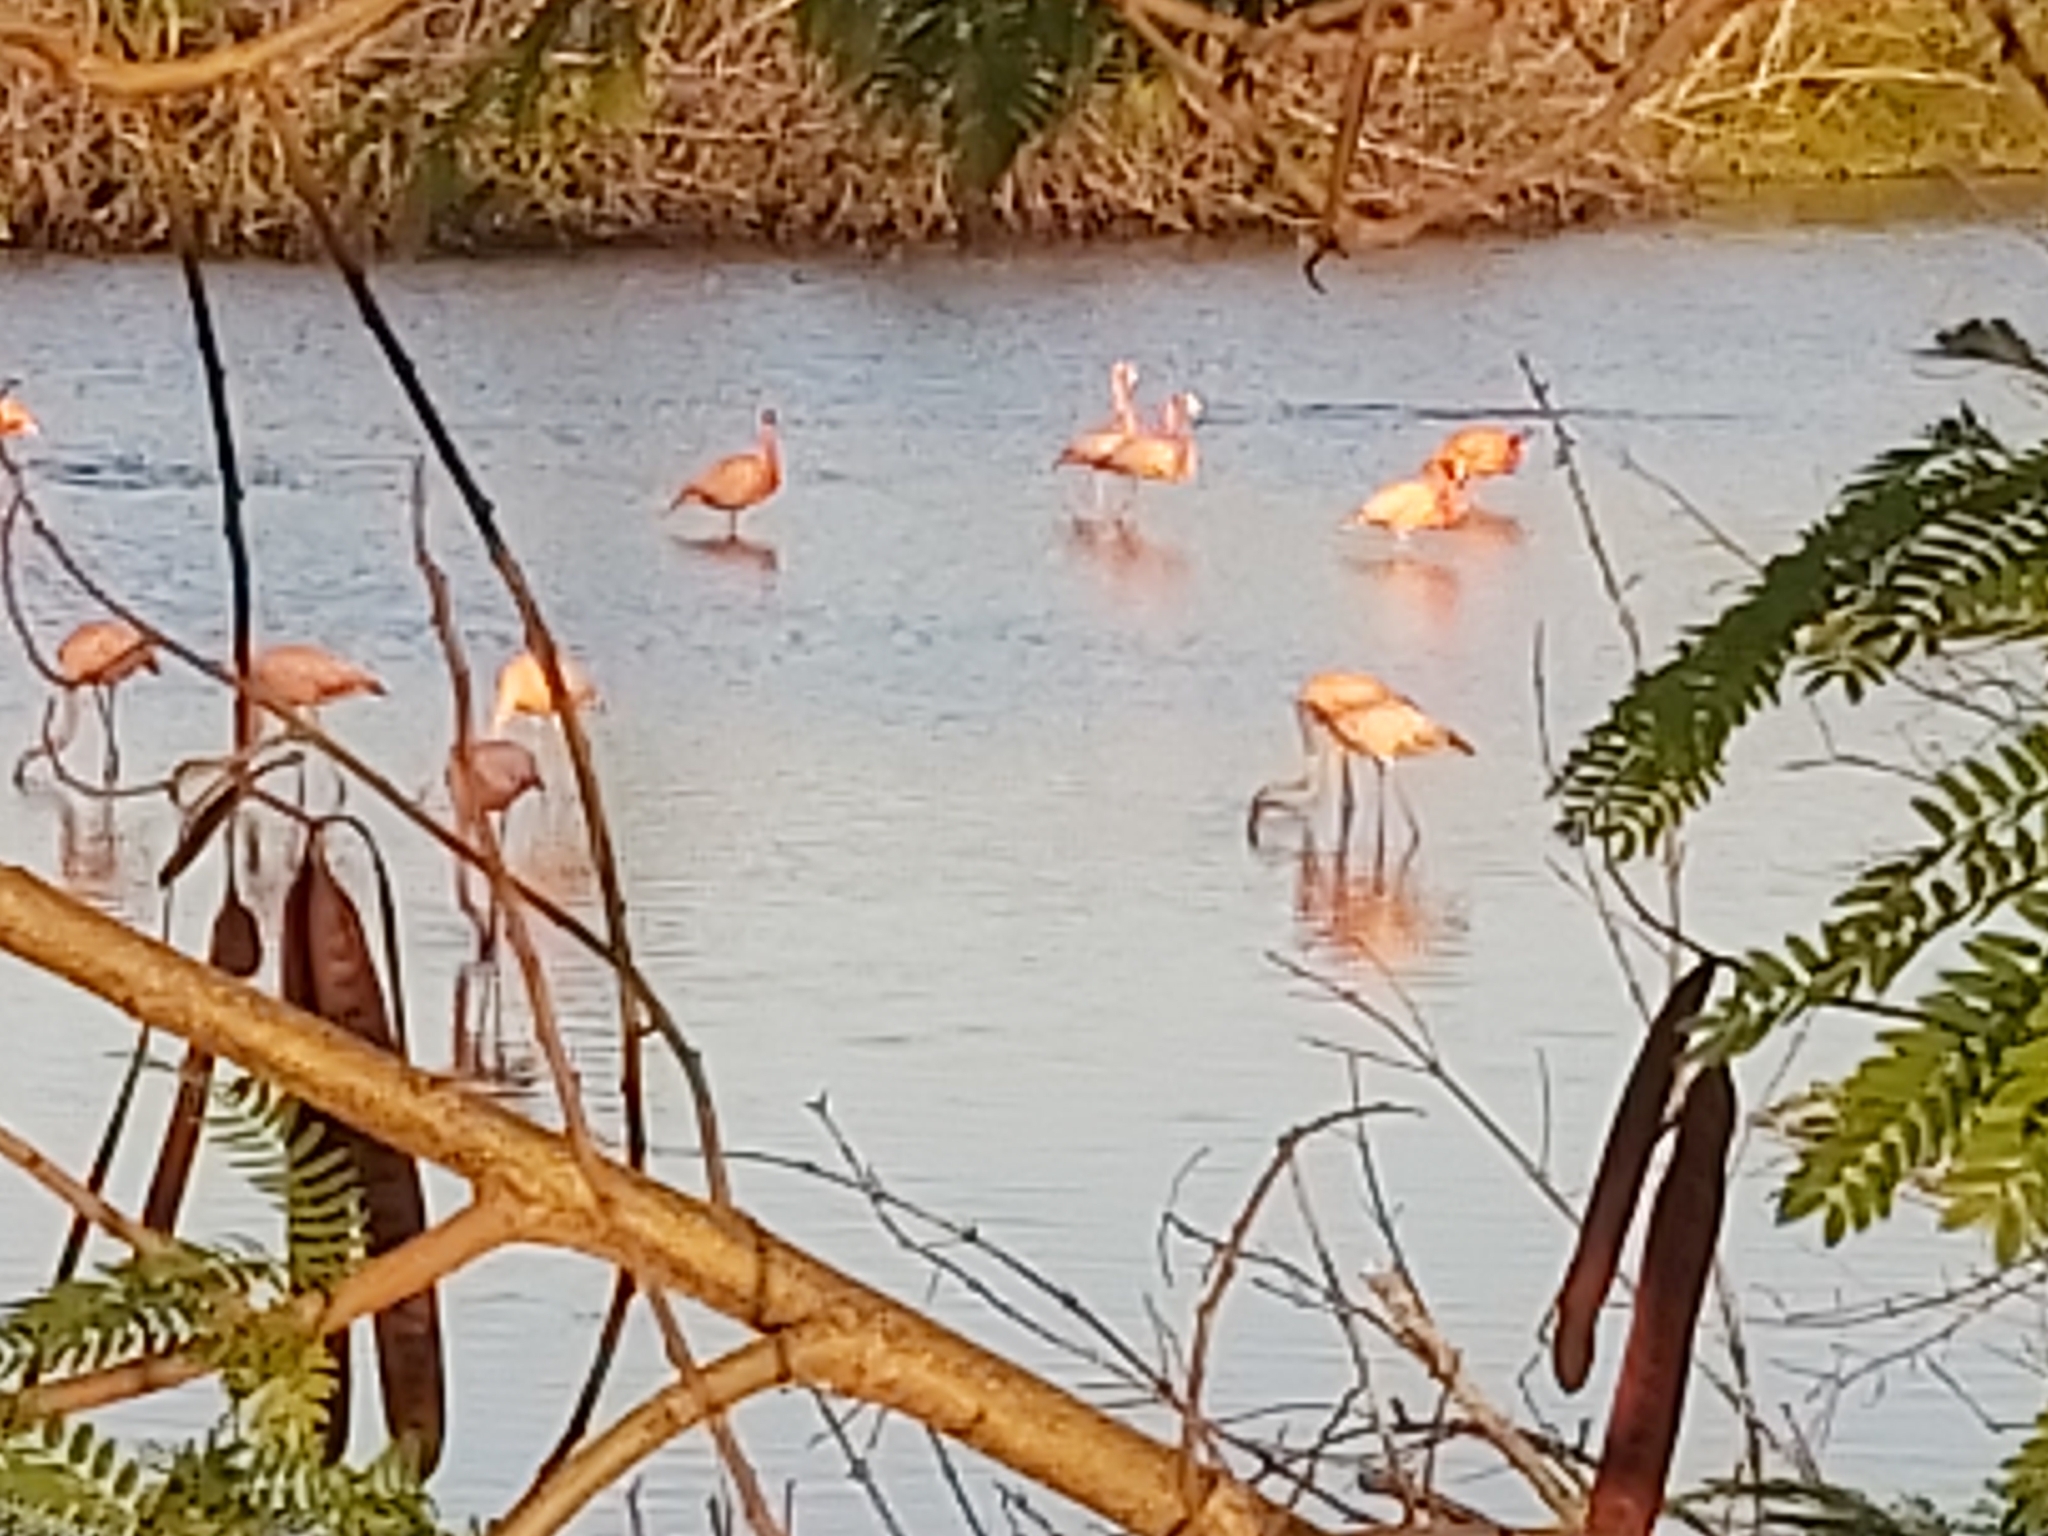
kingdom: Animalia
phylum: Chordata
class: Aves
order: Phoenicopteriformes
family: Phoenicopteridae
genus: Phoenicopterus
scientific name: Phoenicopterus ruber
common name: American flamingo
